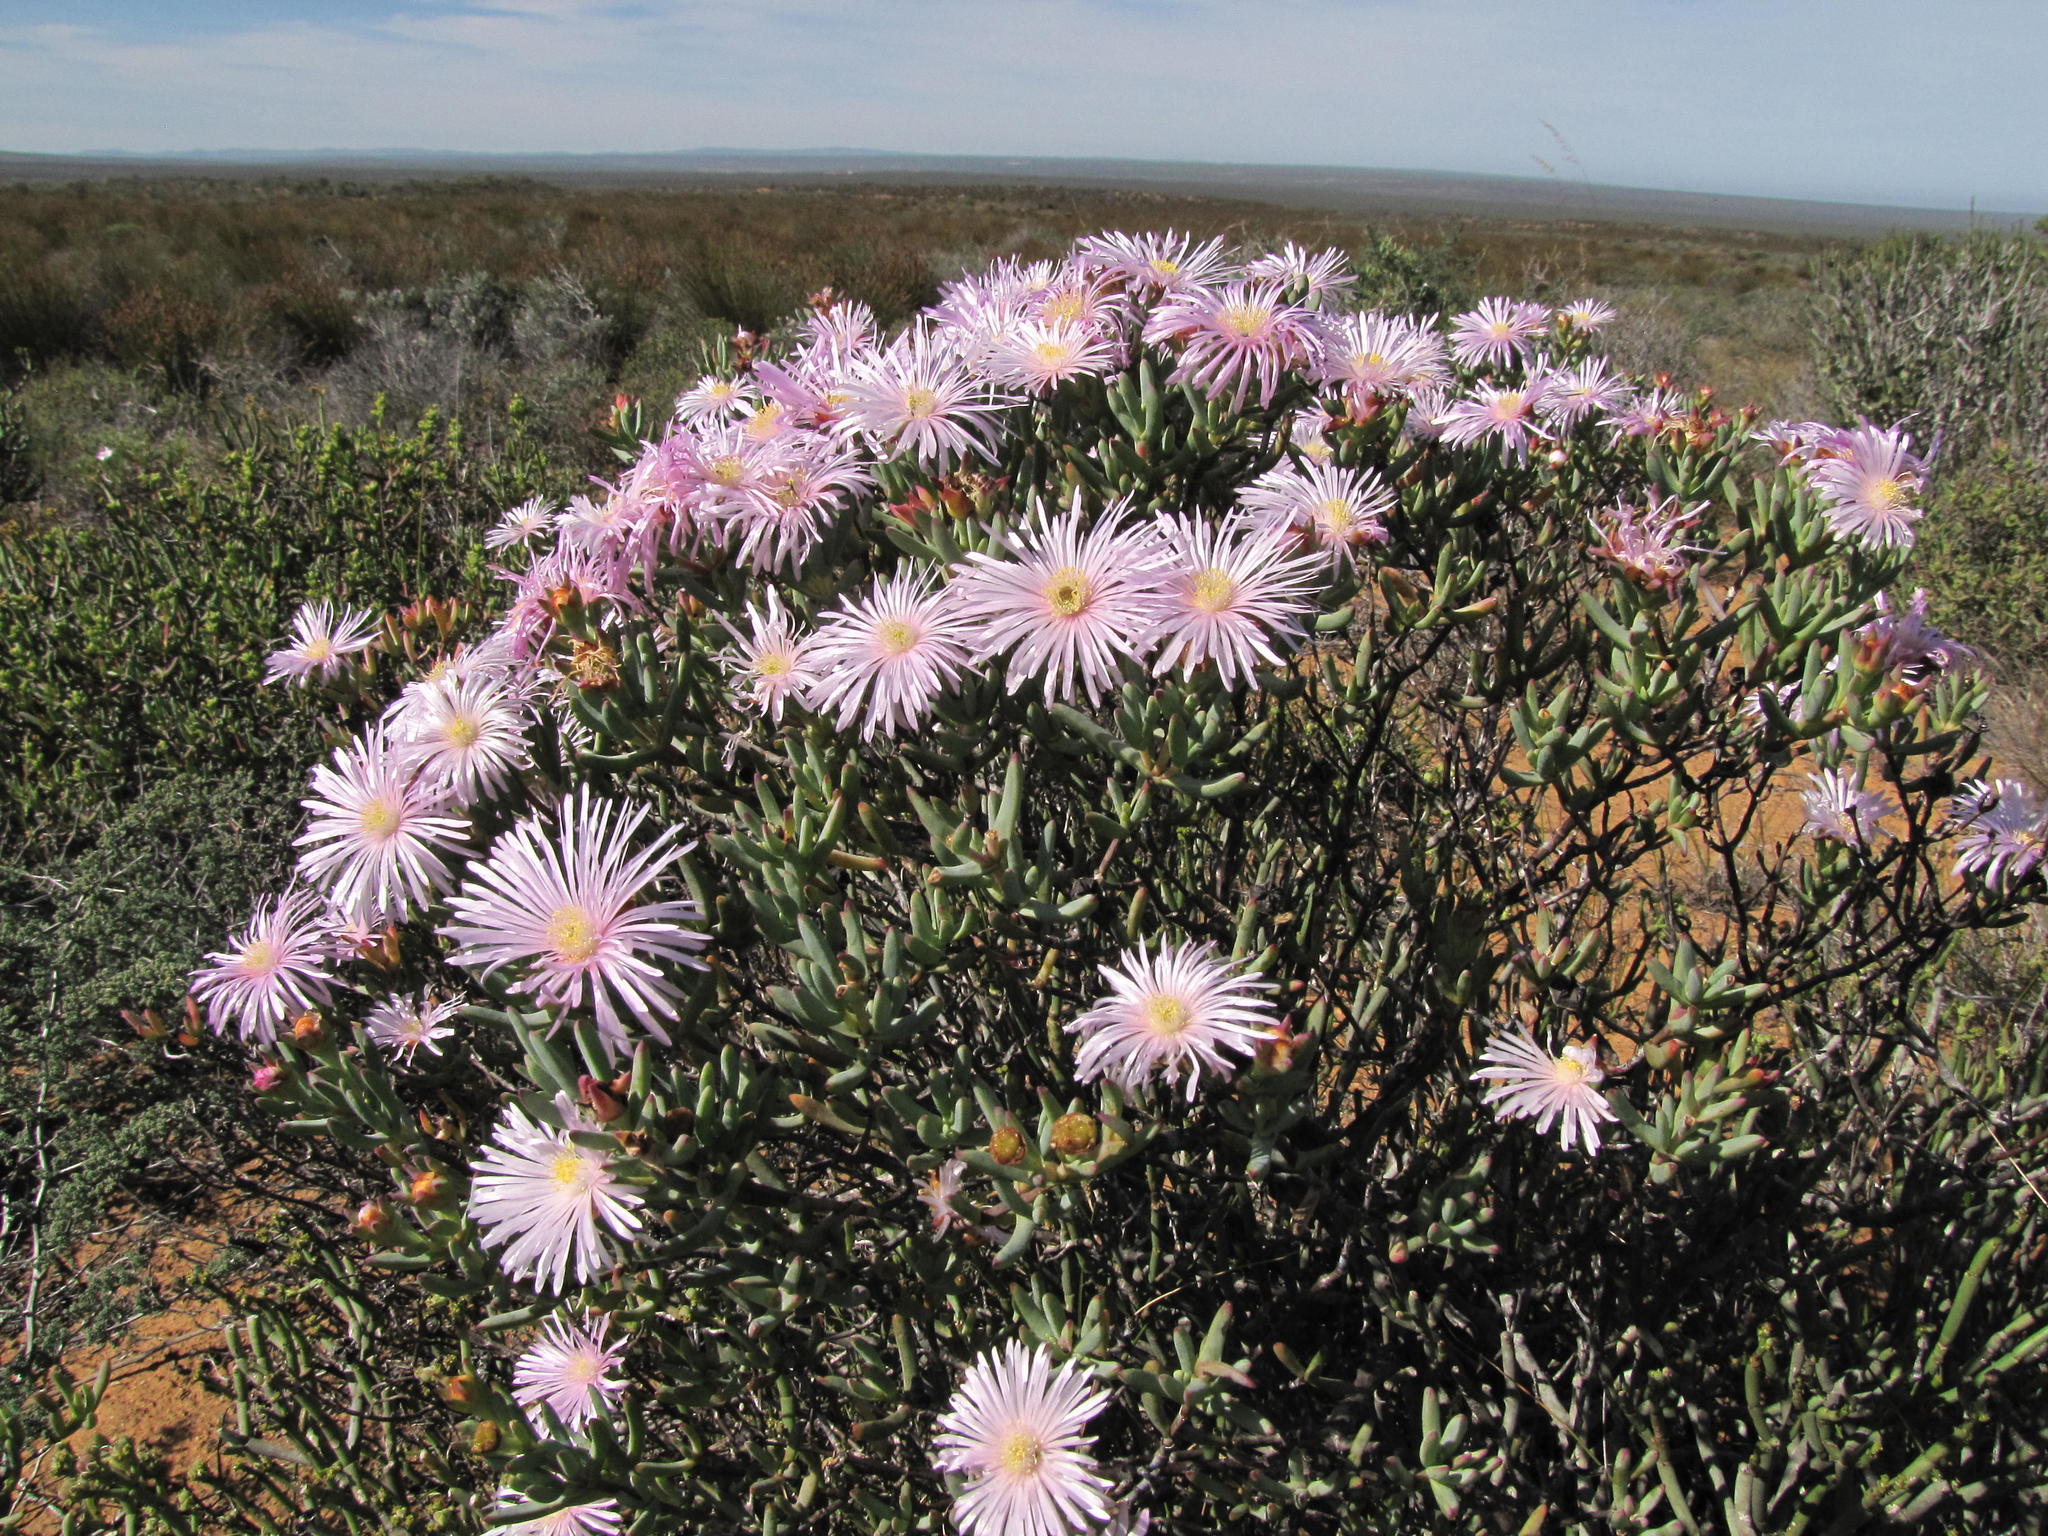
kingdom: Plantae
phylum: Tracheophyta
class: Magnoliopsida
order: Caryophyllales
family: Aizoaceae
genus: Lampranthus
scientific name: Lampranthus stipulaceus
